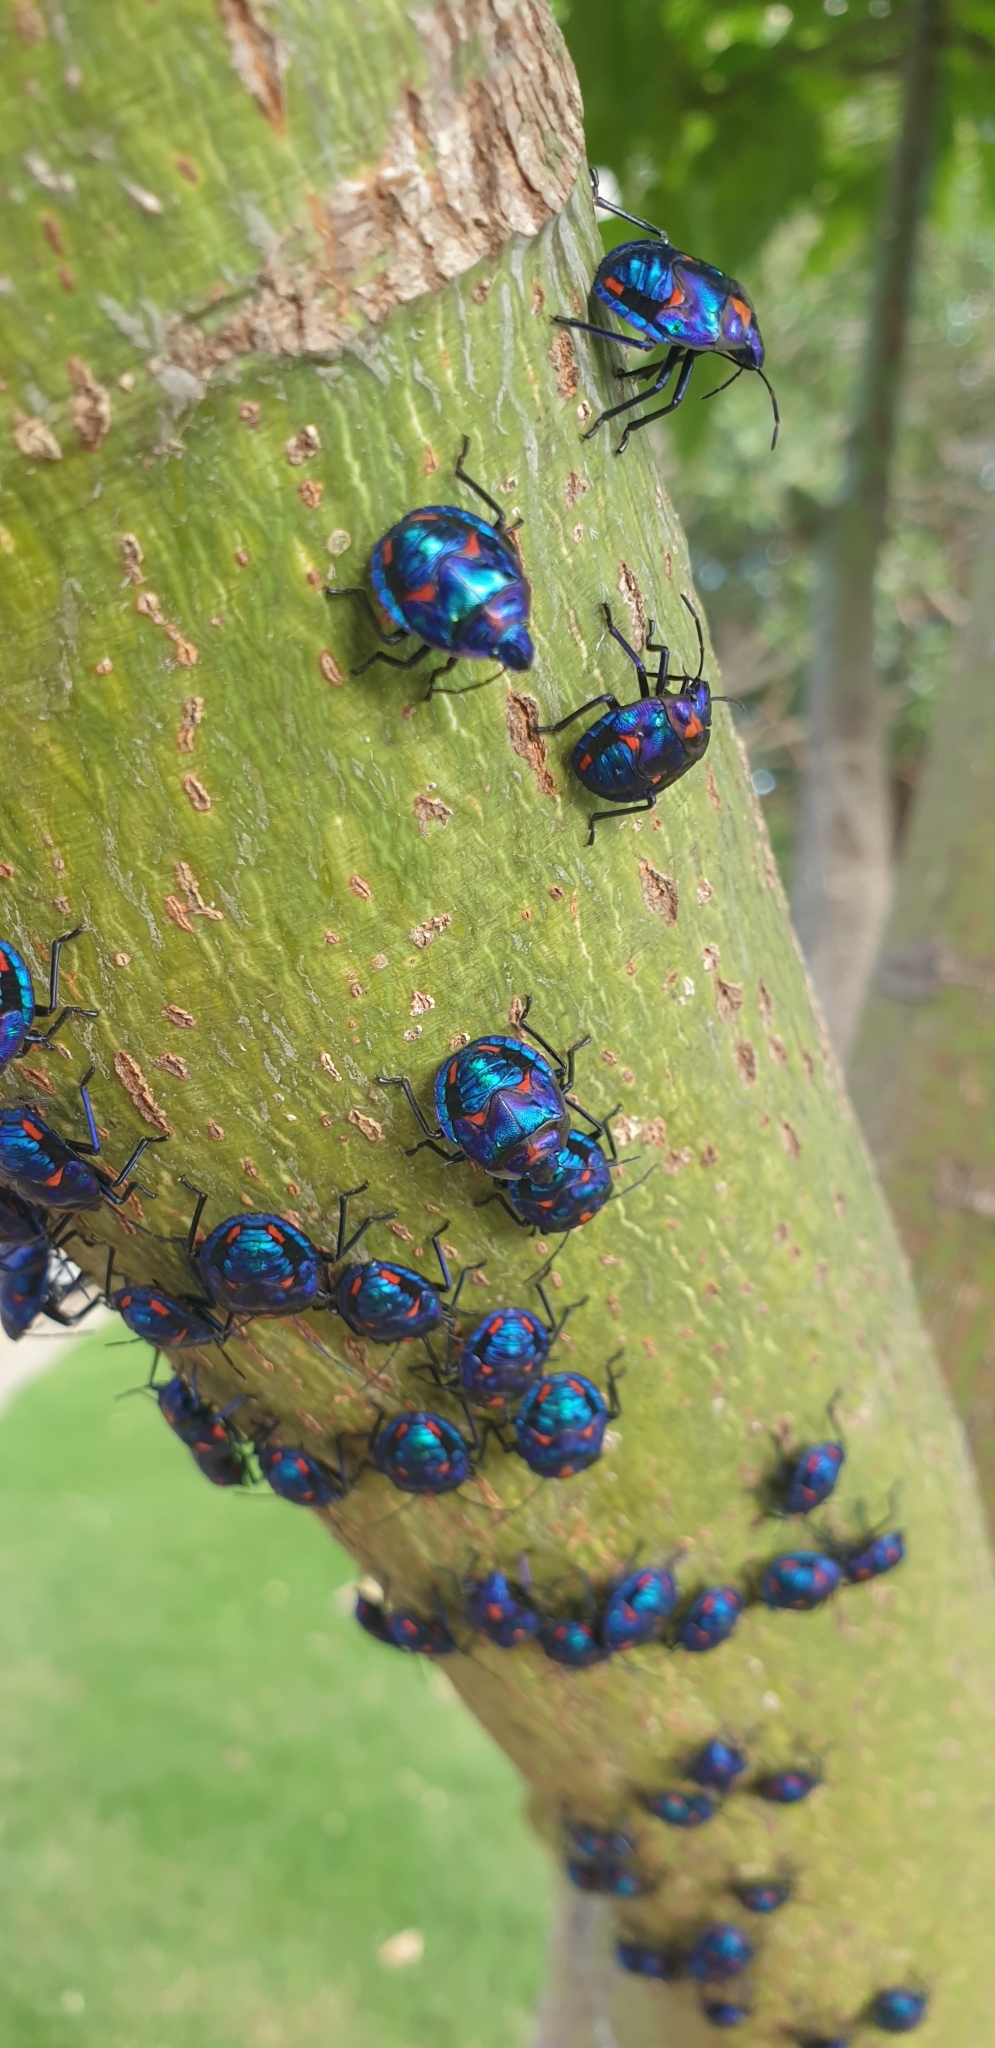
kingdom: Animalia
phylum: Arthropoda
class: Insecta
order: Hemiptera
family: Scutelleridae
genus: Tectocoris
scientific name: Tectocoris diophthalmus
